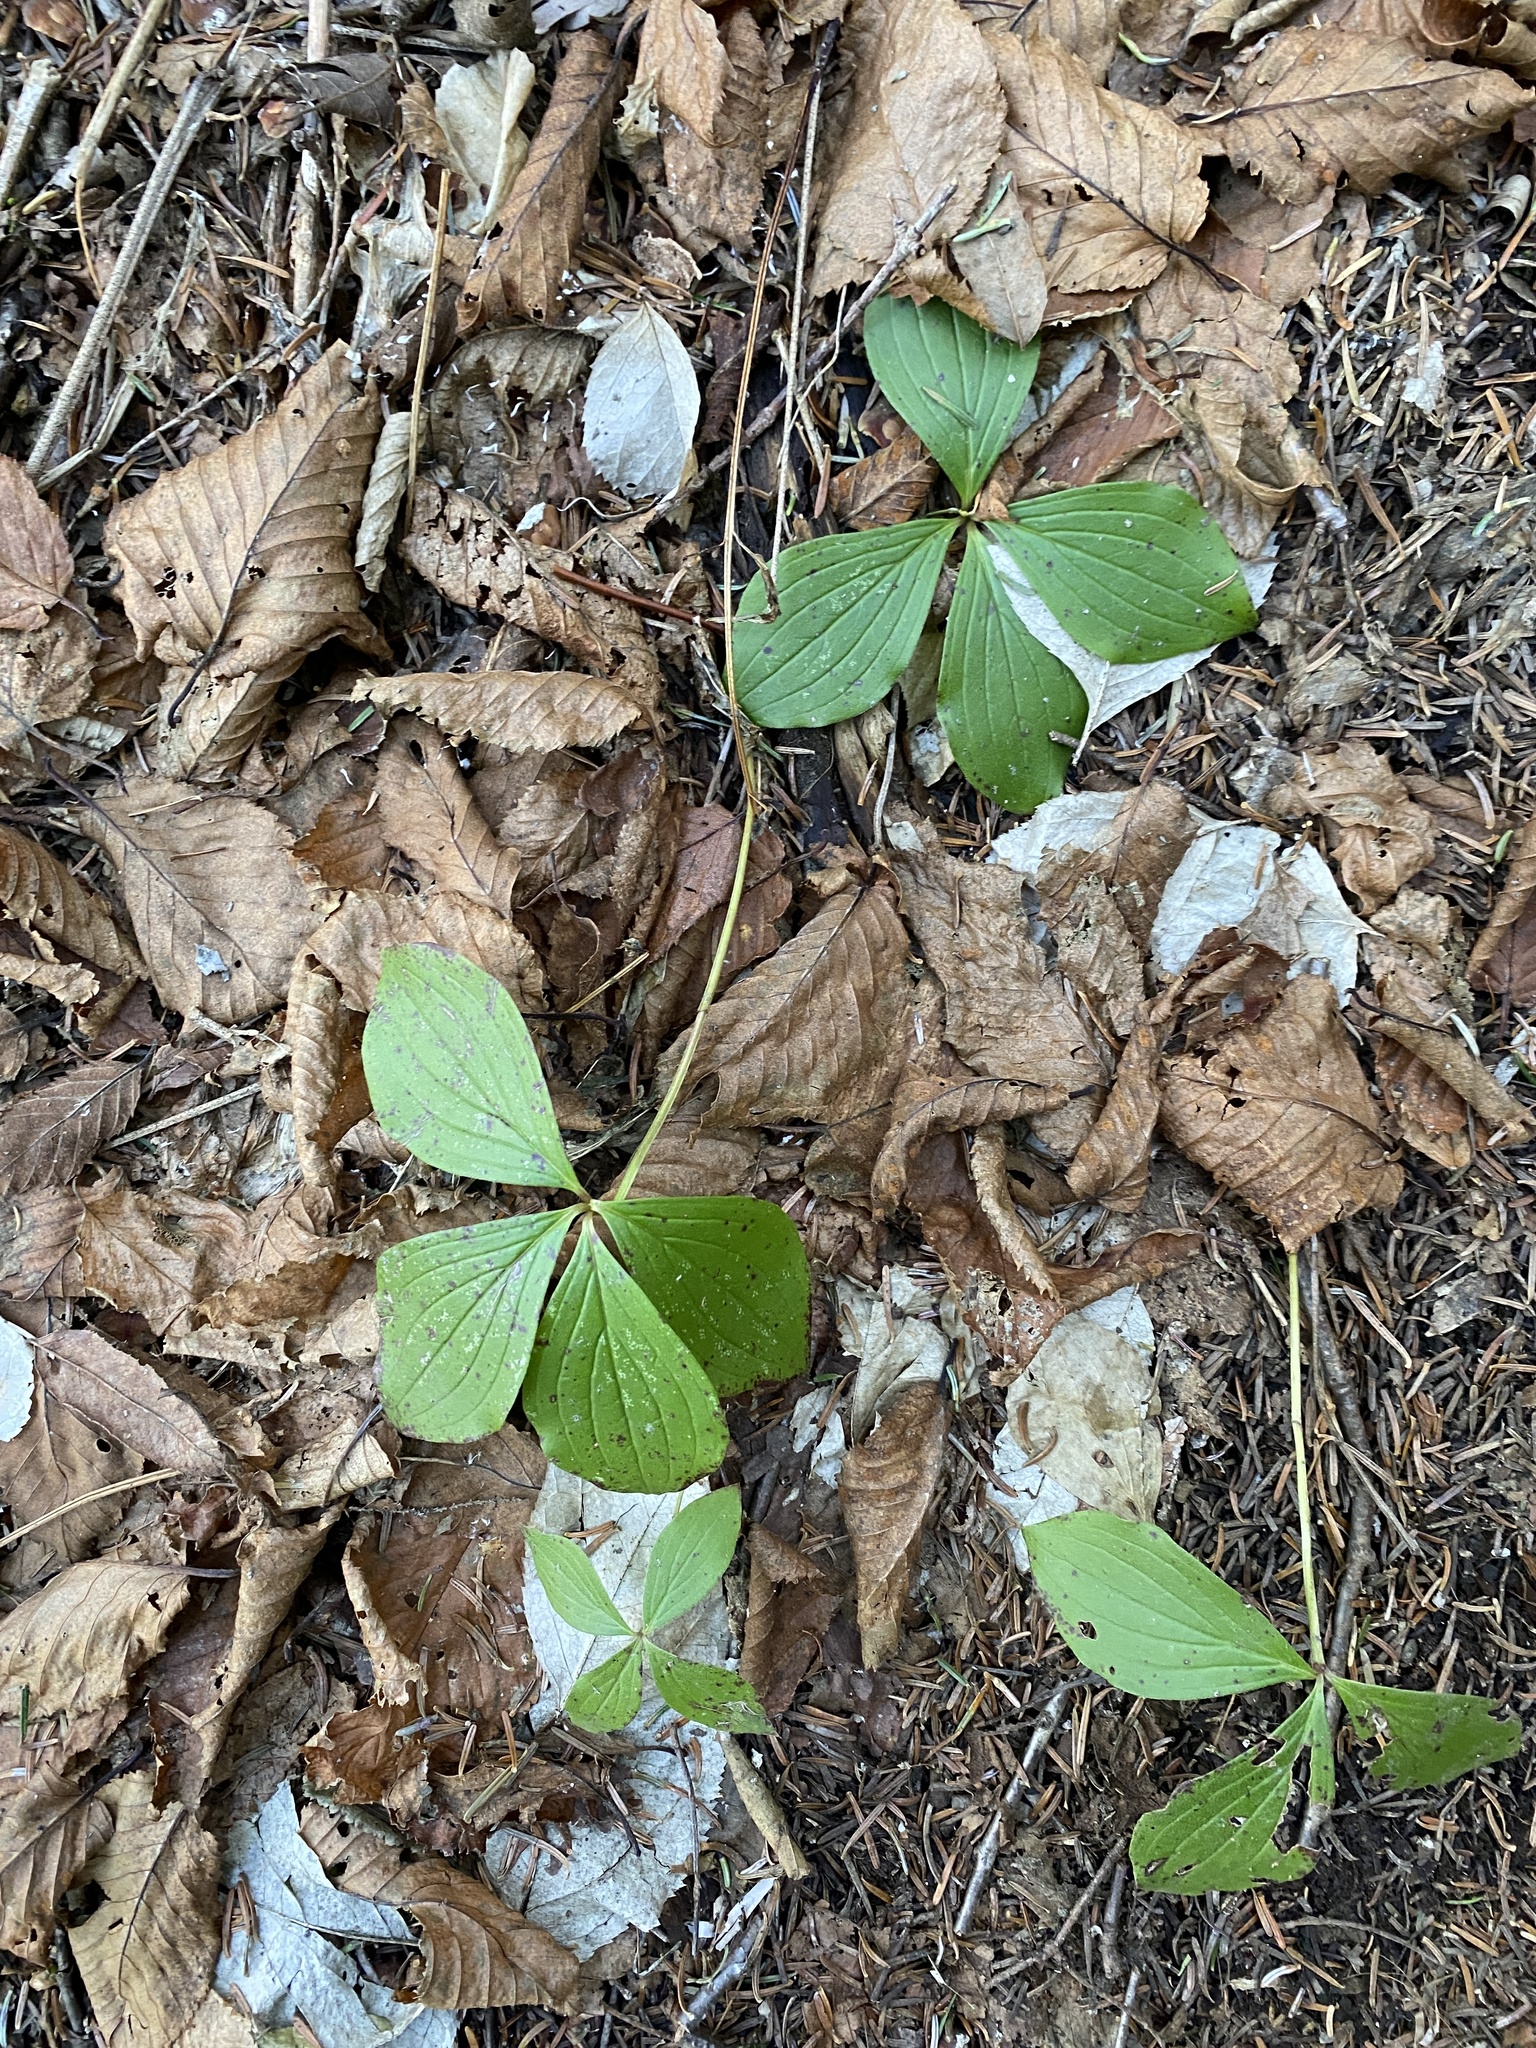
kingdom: Plantae
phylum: Tracheophyta
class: Magnoliopsida
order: Cornales
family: Cornaceae
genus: Cornus
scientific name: Cornus canadensis
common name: Creeping dogwood
